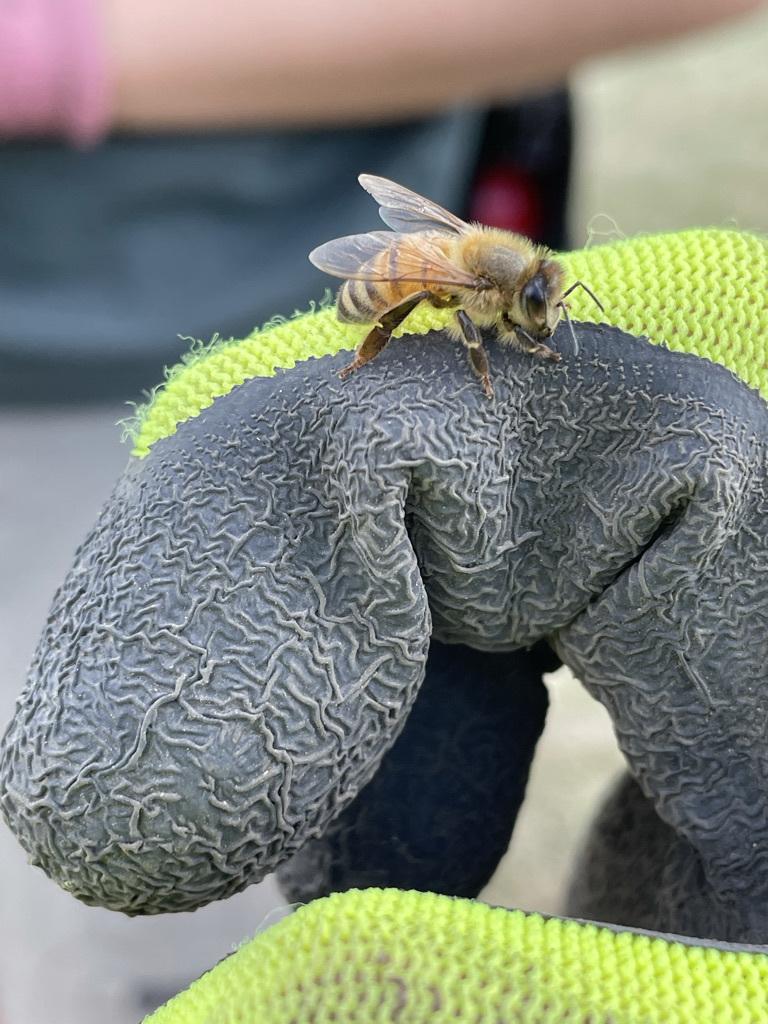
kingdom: Animalia
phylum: Arthropoda
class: Insecta
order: Hymenoptera
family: Apidae
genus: Apis
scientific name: Apis mellifera
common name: Honey bee
